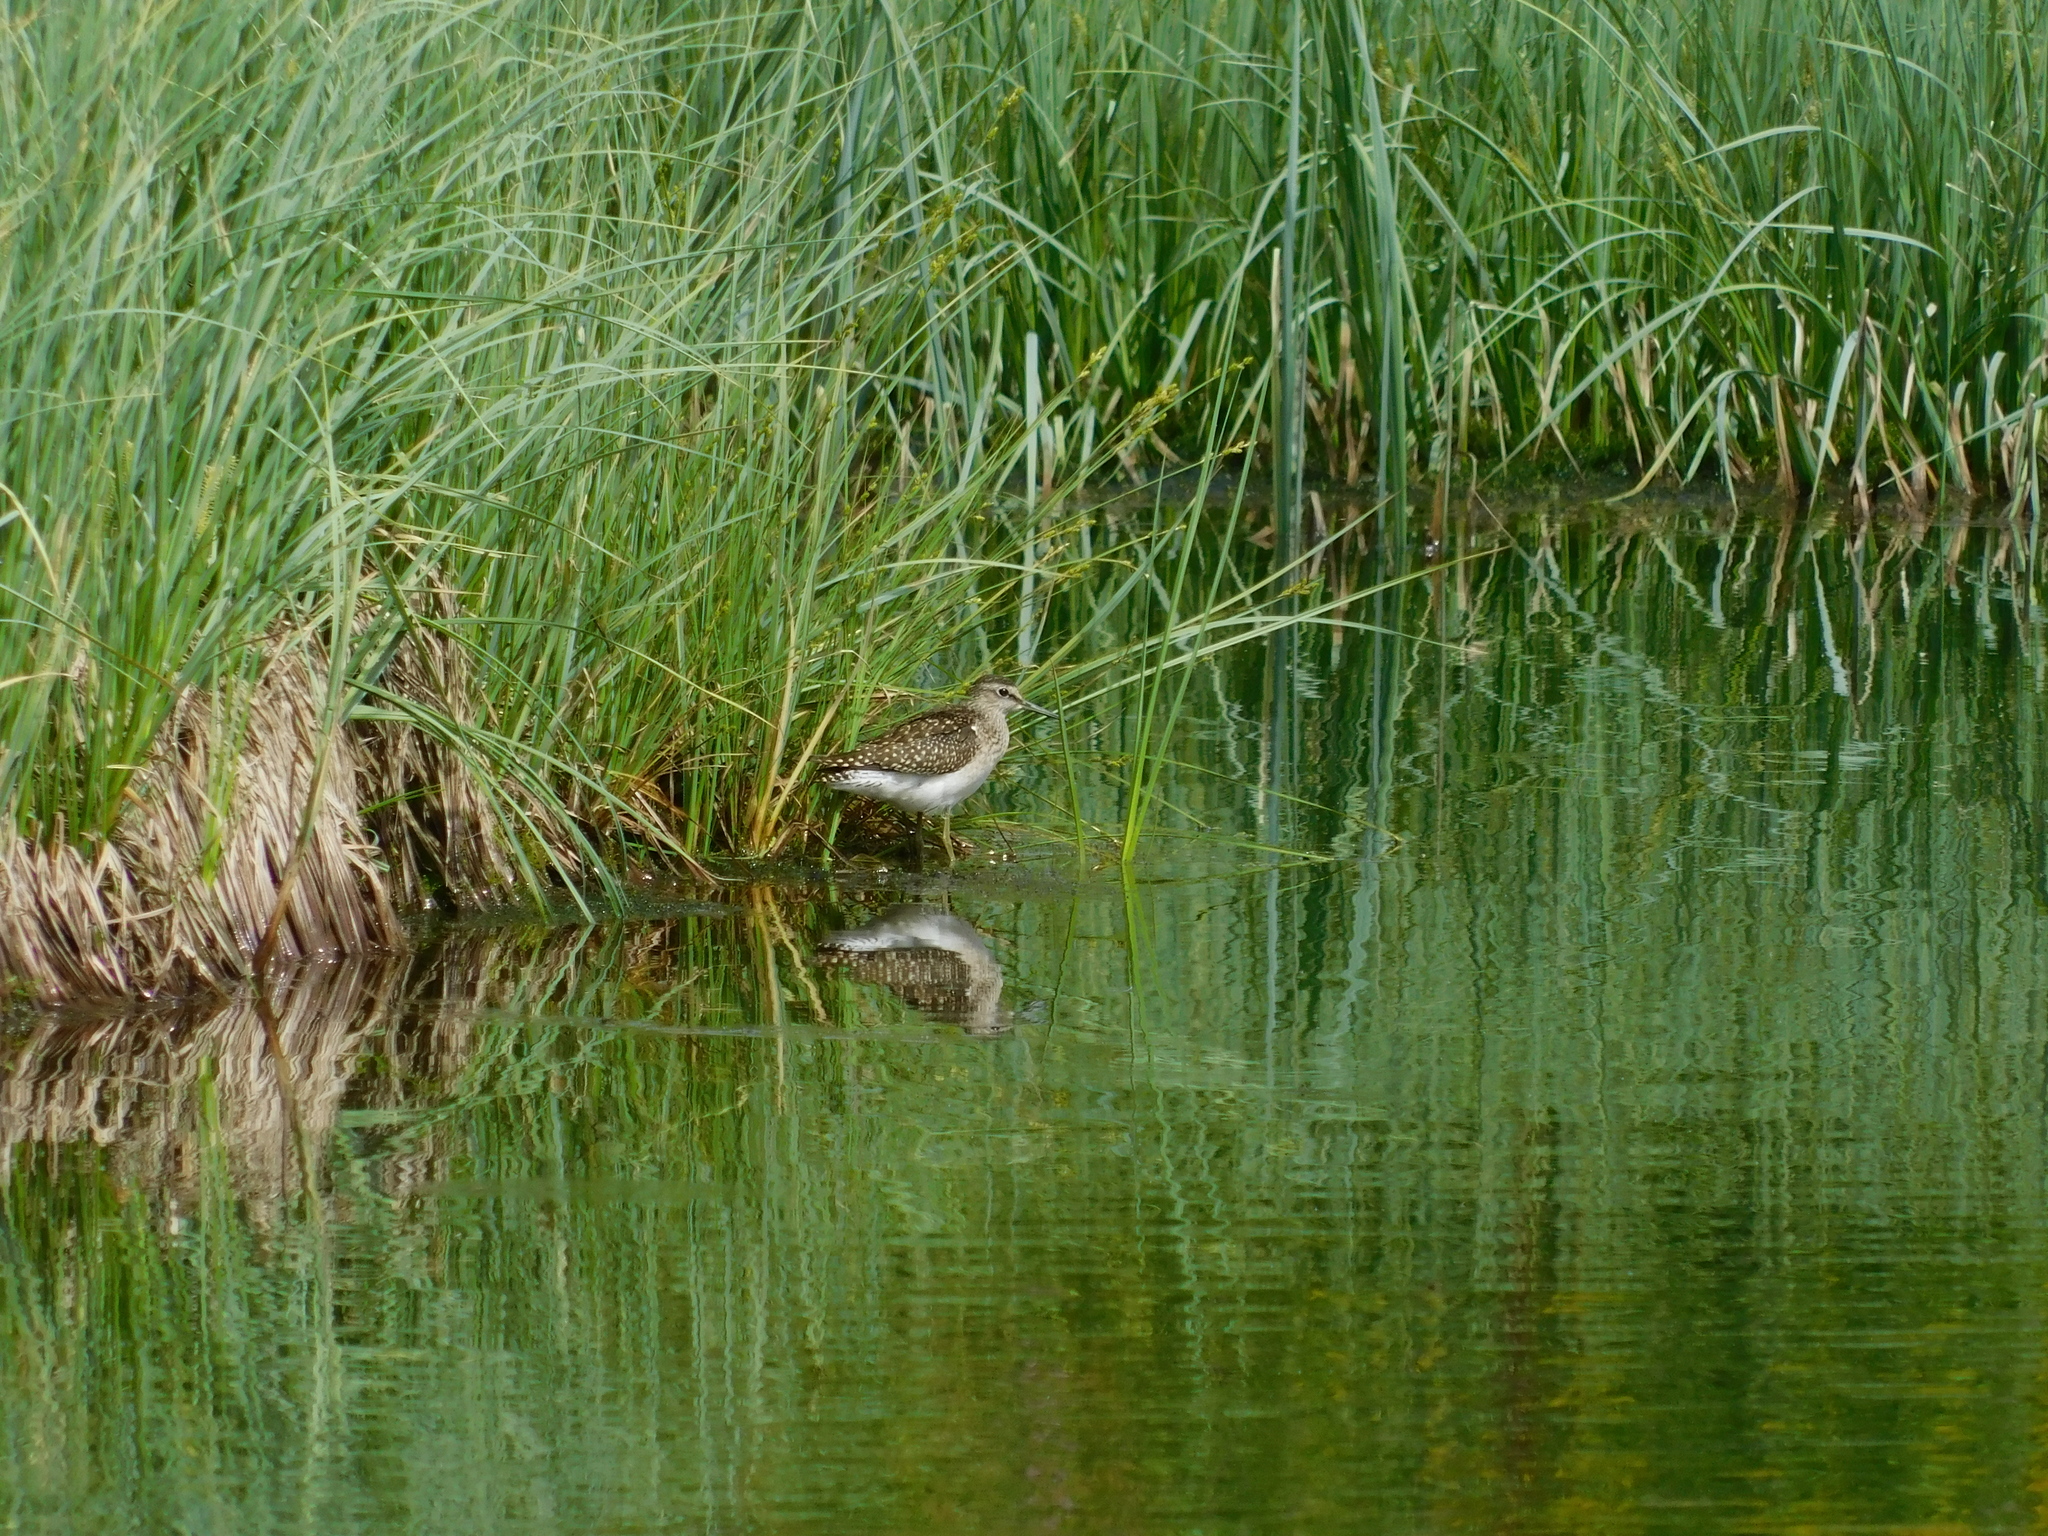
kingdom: Animalia
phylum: Chordata
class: Aves
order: Charadriiformes
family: Scolopacidae
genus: Tringa
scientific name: Tringa glareola
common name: Wood sandpiper
